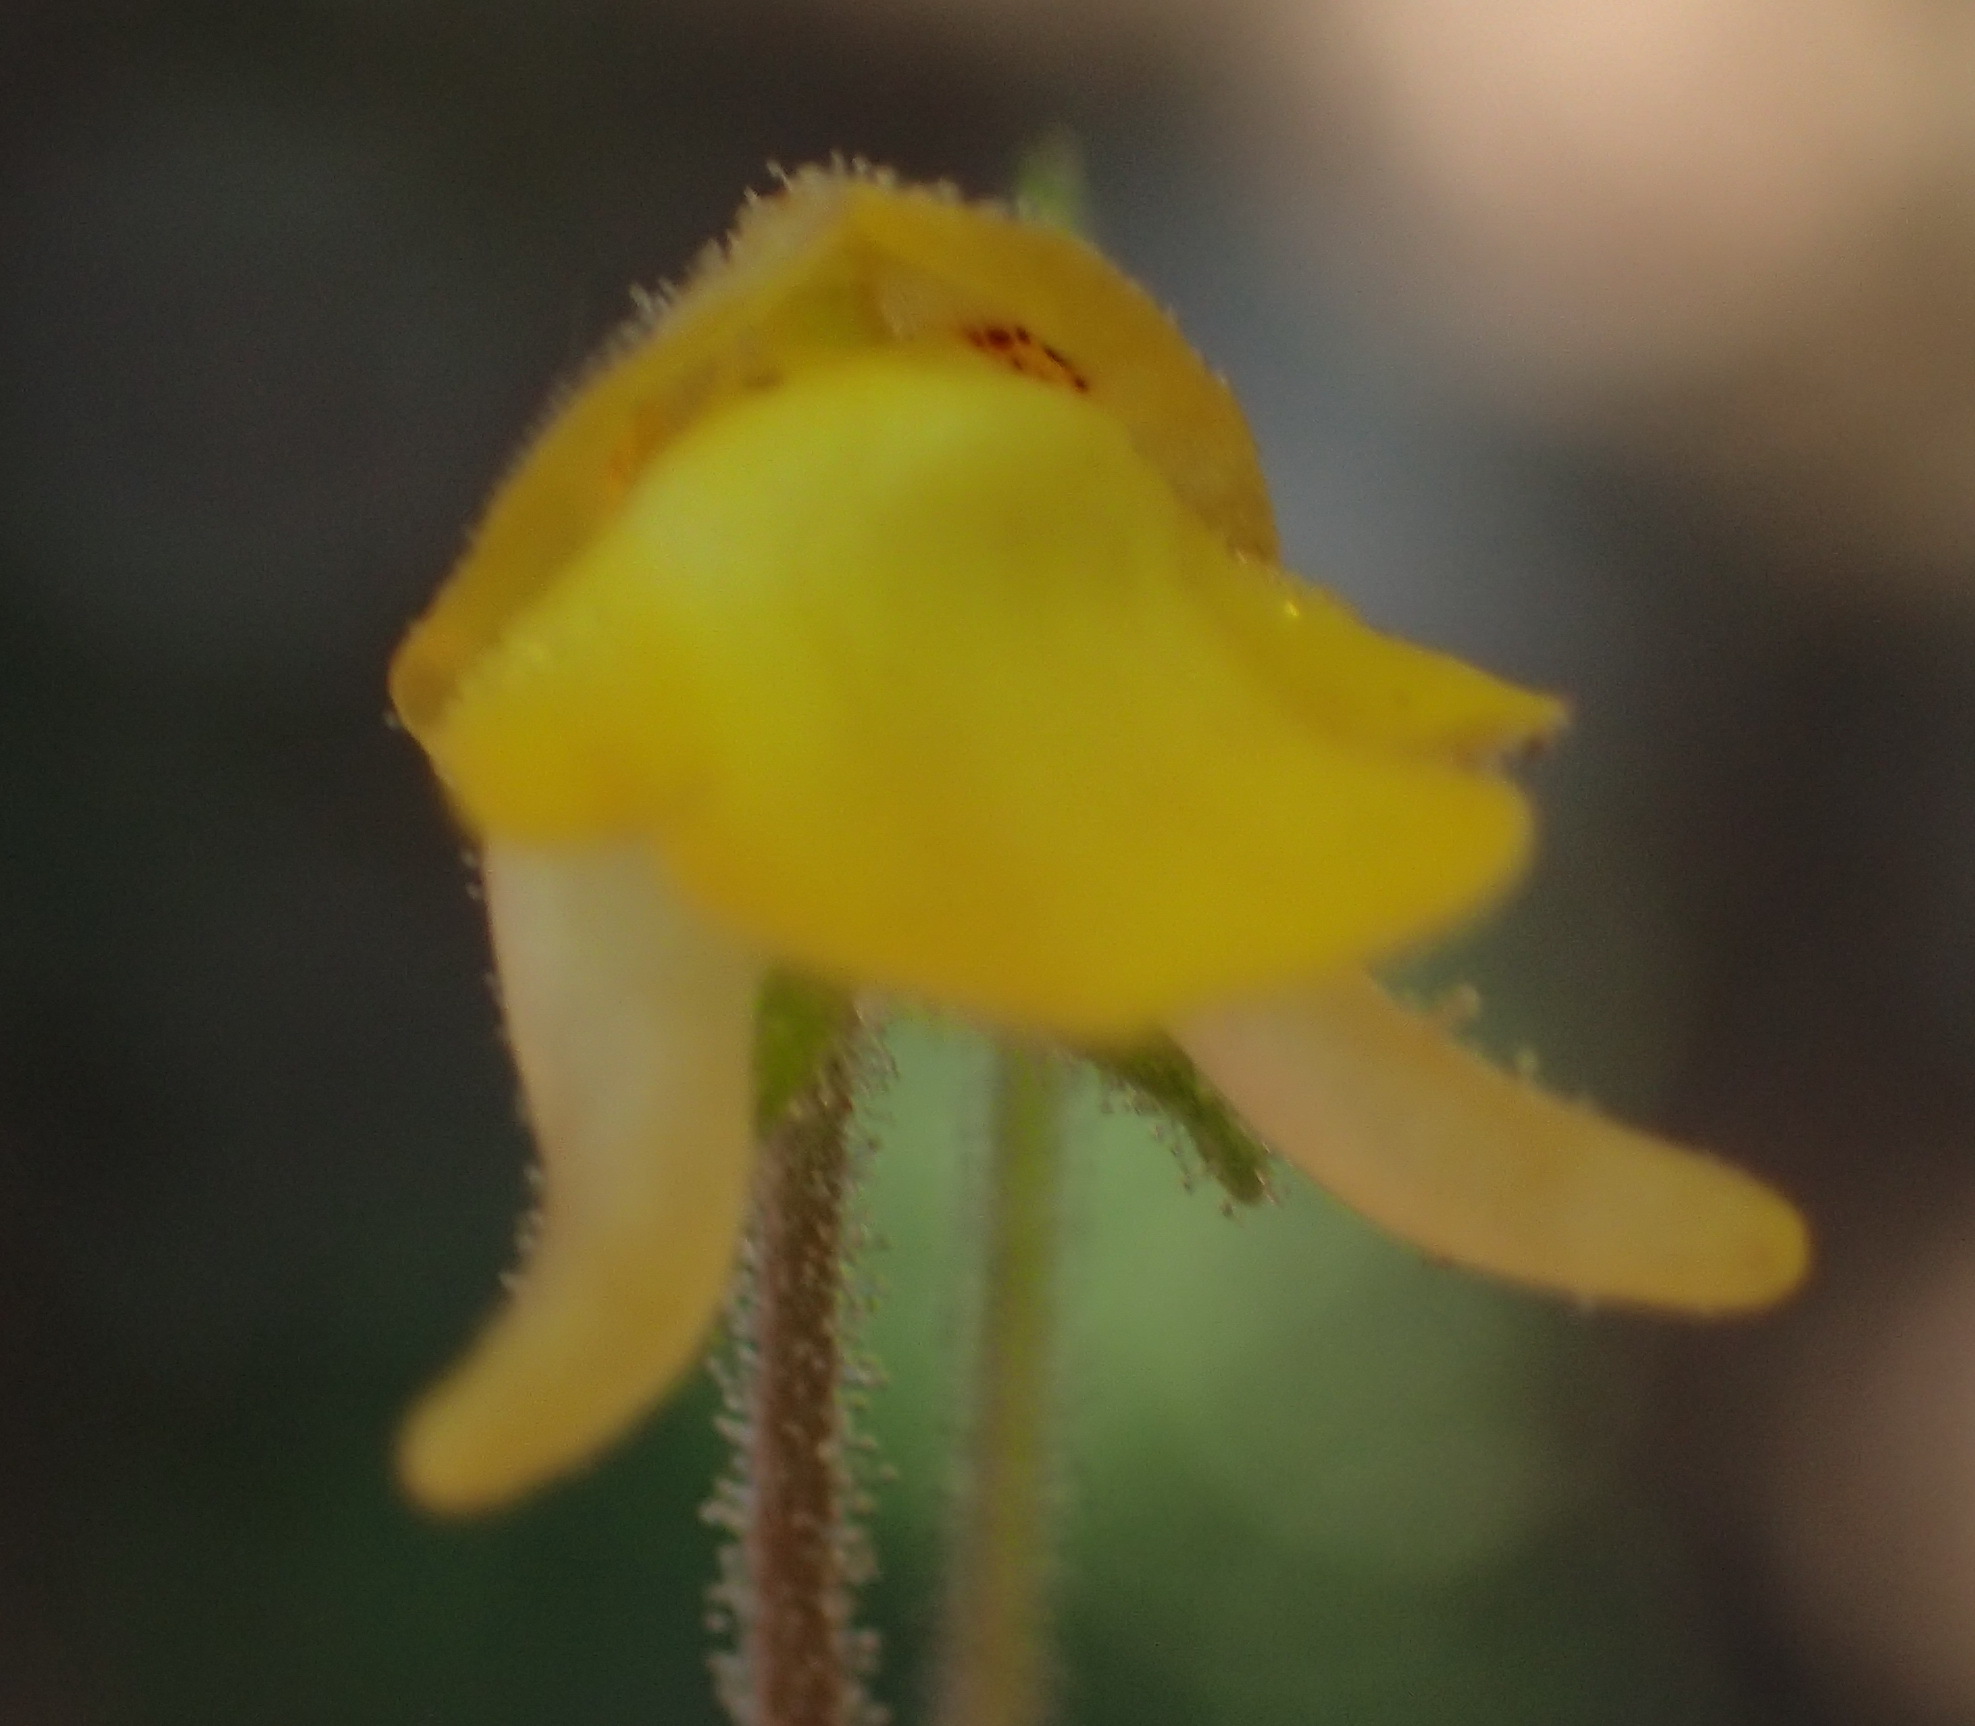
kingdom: Plantae
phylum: Tracheophyta
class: Magnoliopsida
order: Lamiales
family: Scrophulariaceae
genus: Hemimeris
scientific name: Hemimeris gracilis
